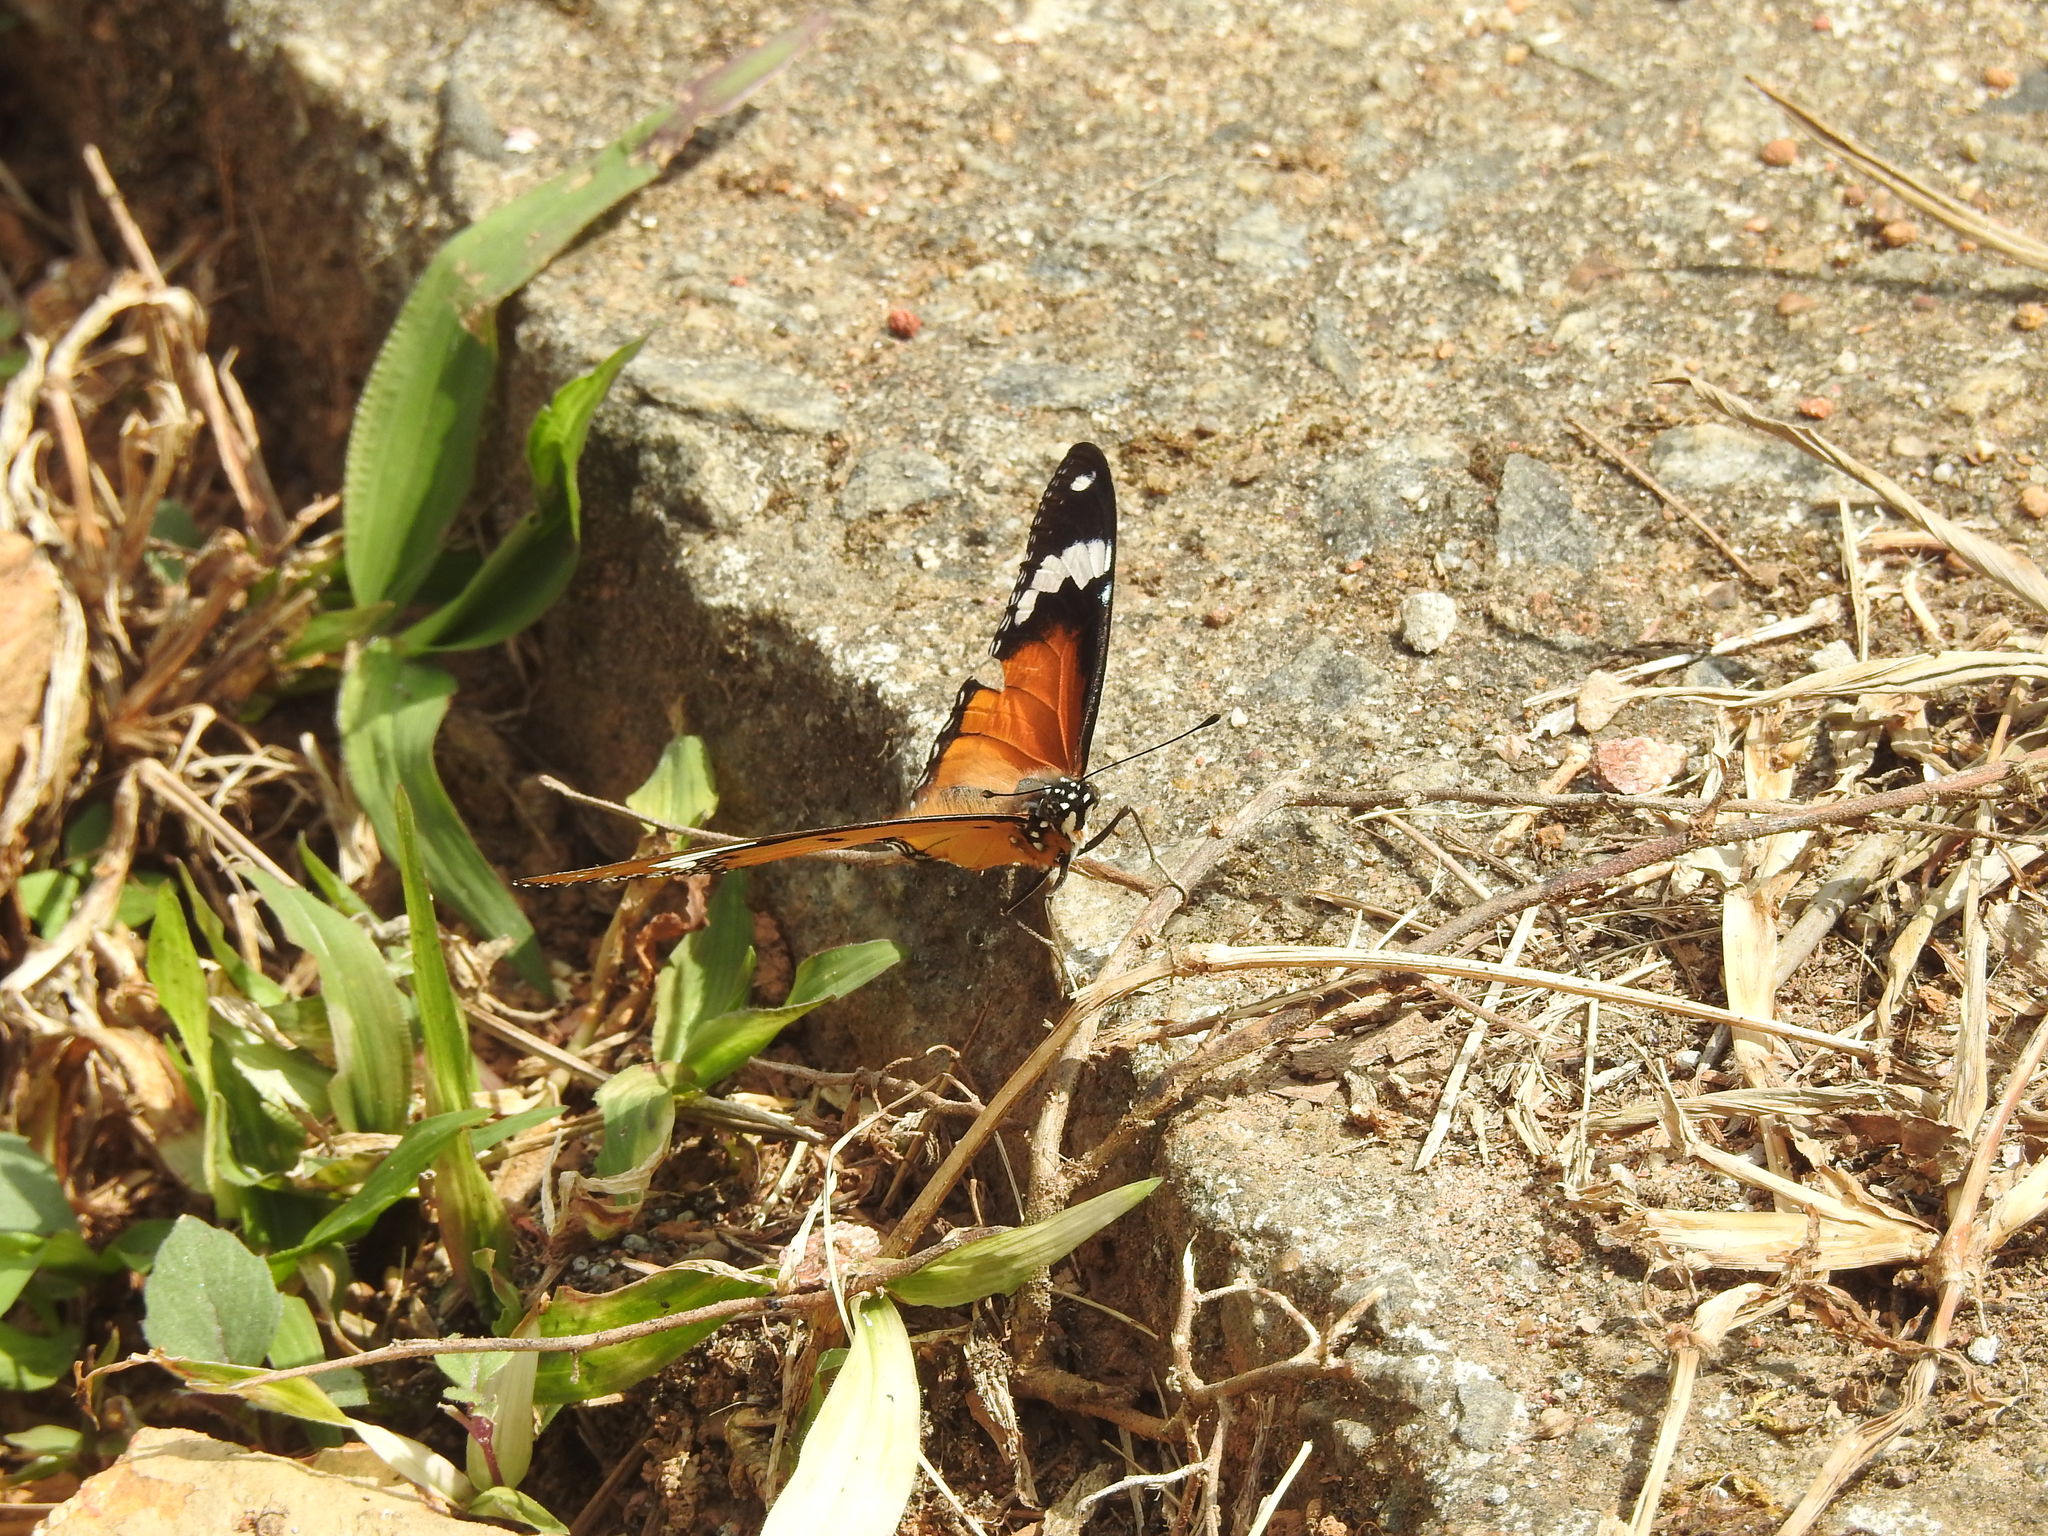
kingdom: Animalia
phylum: Arthropoda
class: Insecta
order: Lepidoptera
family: Nymphalidae
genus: Hypolimnas
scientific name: Hypolimnas misippus
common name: False plain tiger
